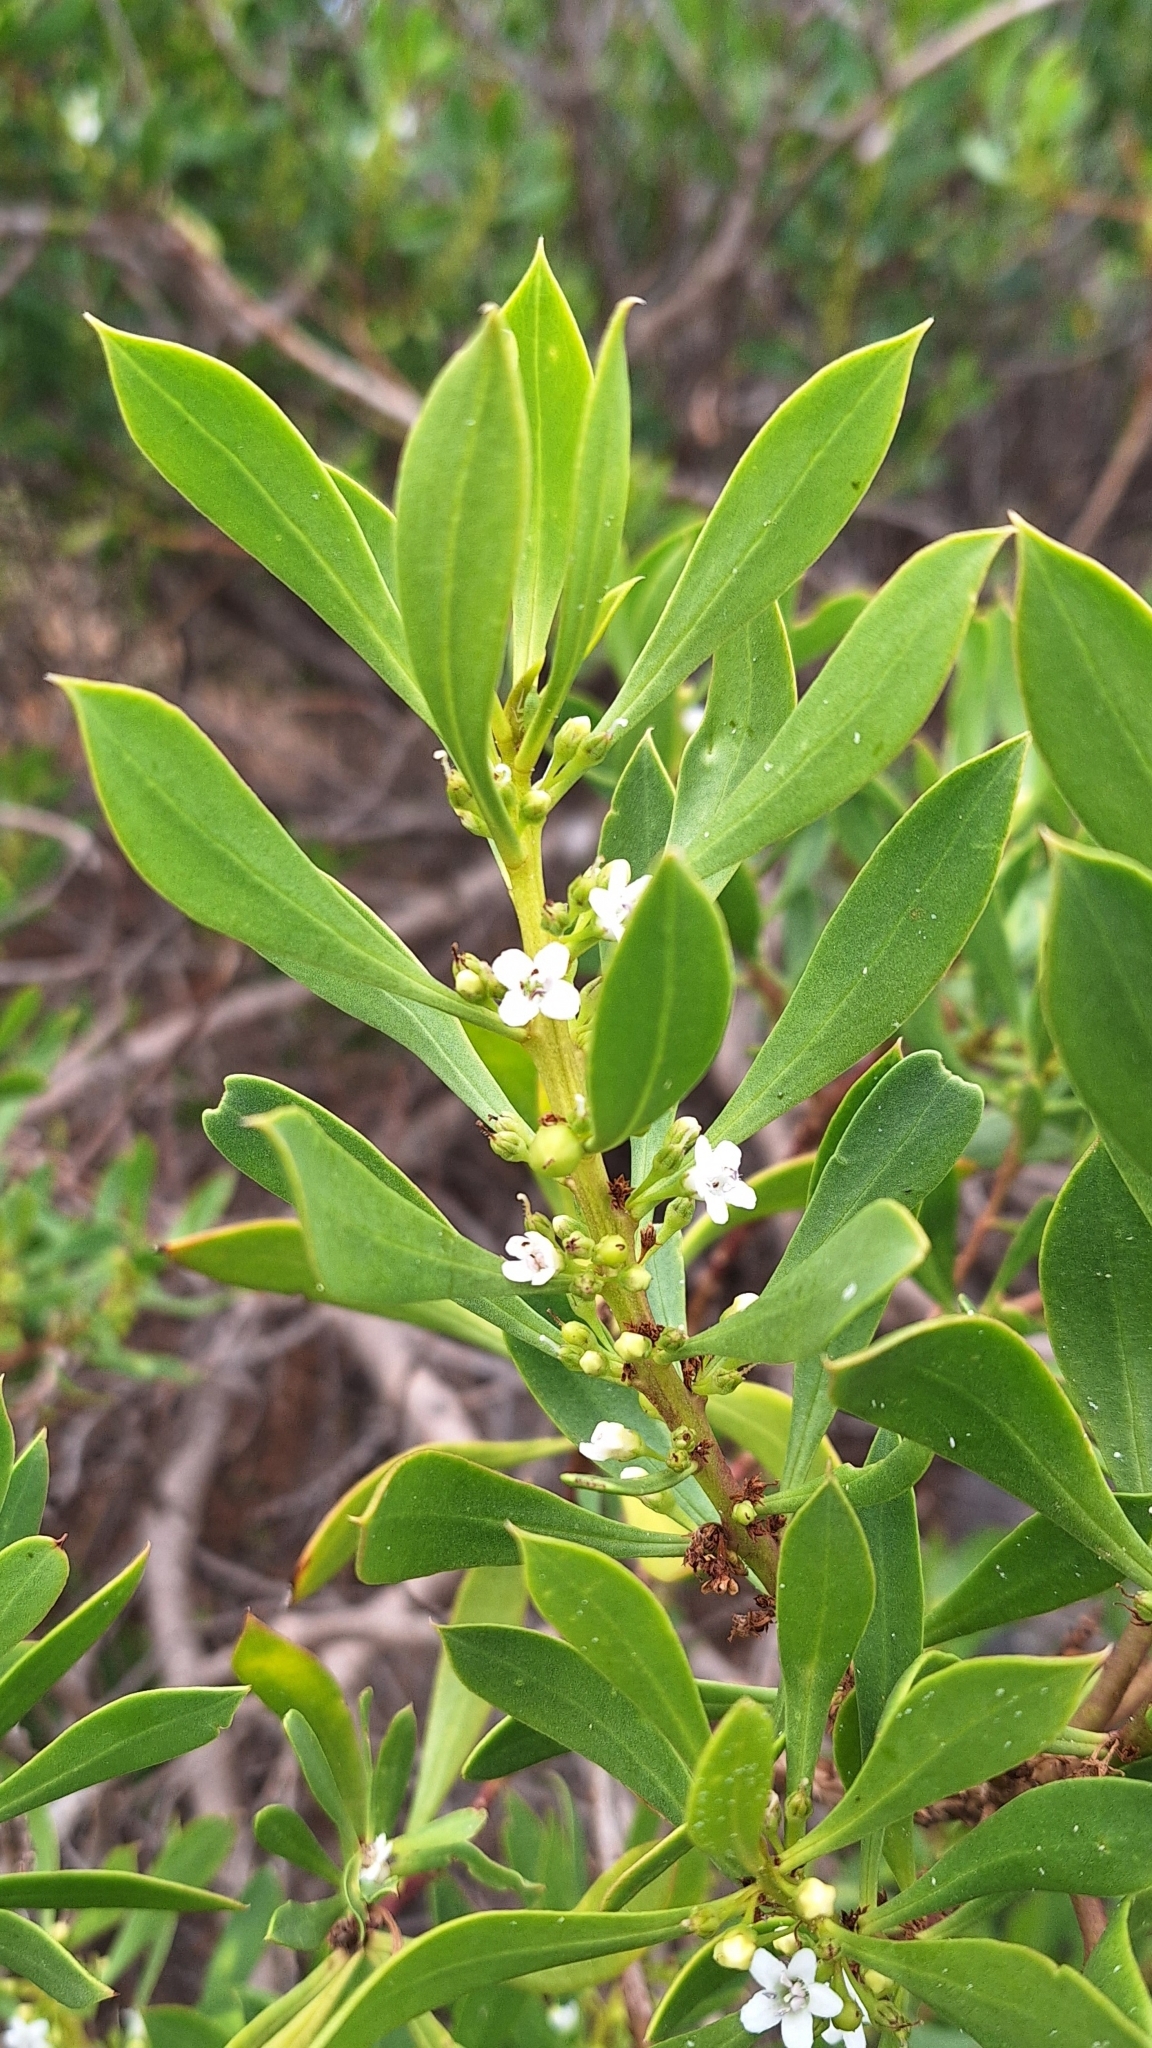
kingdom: Plantae
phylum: Tracheophyta
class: Magnoliopsida
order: Lamiales
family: Scrophulariaceae
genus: Myoporum
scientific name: Myoporum insulare
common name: Common boobialla
